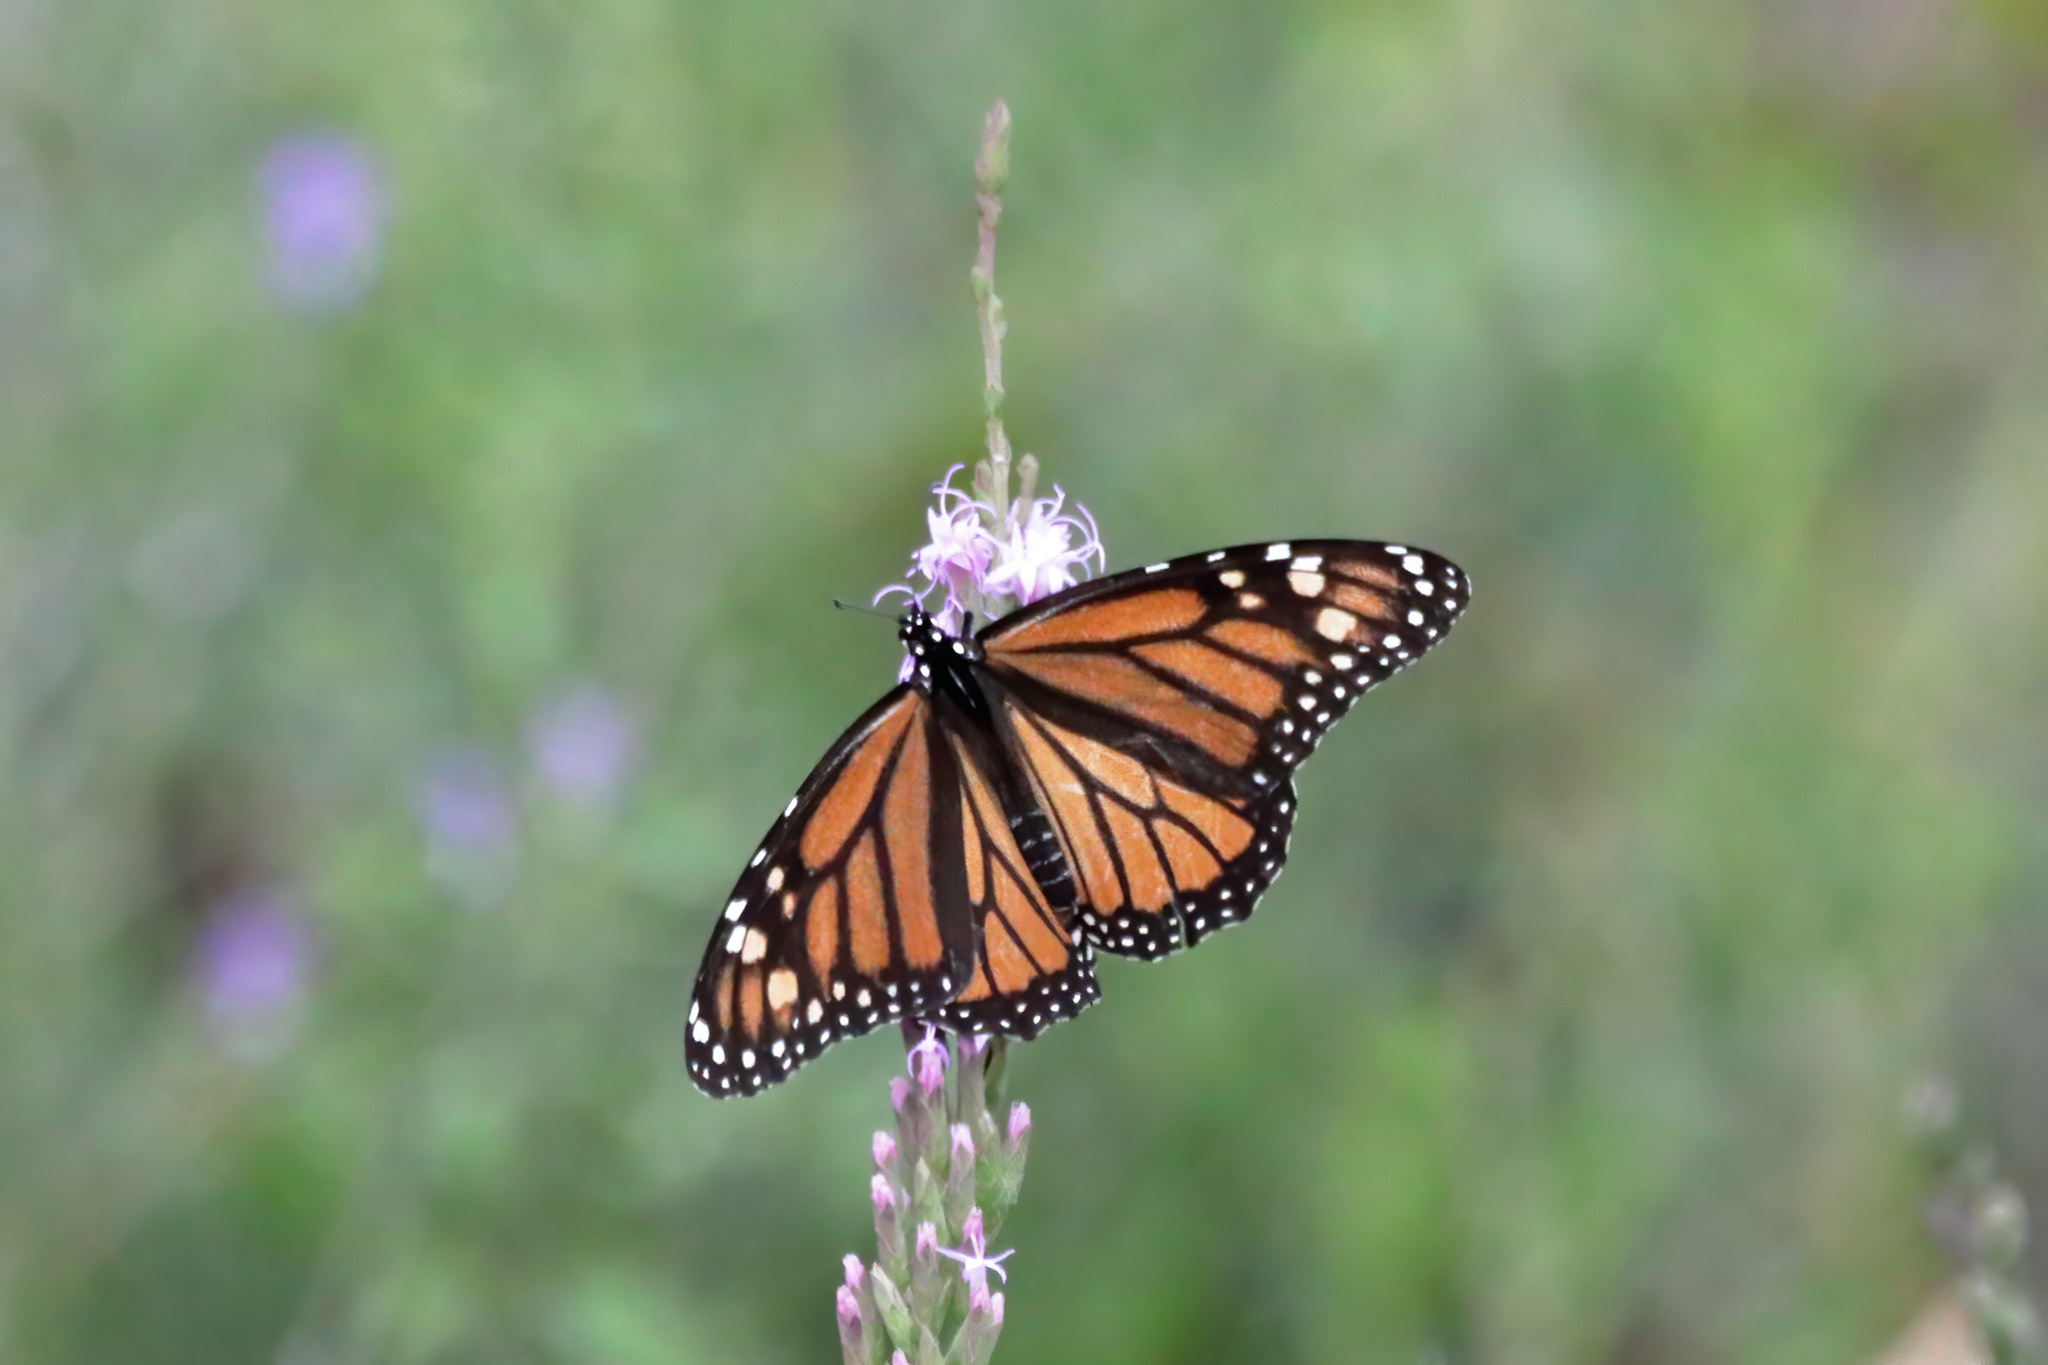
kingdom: Animalia
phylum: Arthropoda
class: Insecta
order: Lepidoptera
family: Nymphalidae
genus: Danaus
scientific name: Danaus plexippus
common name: Monarch
